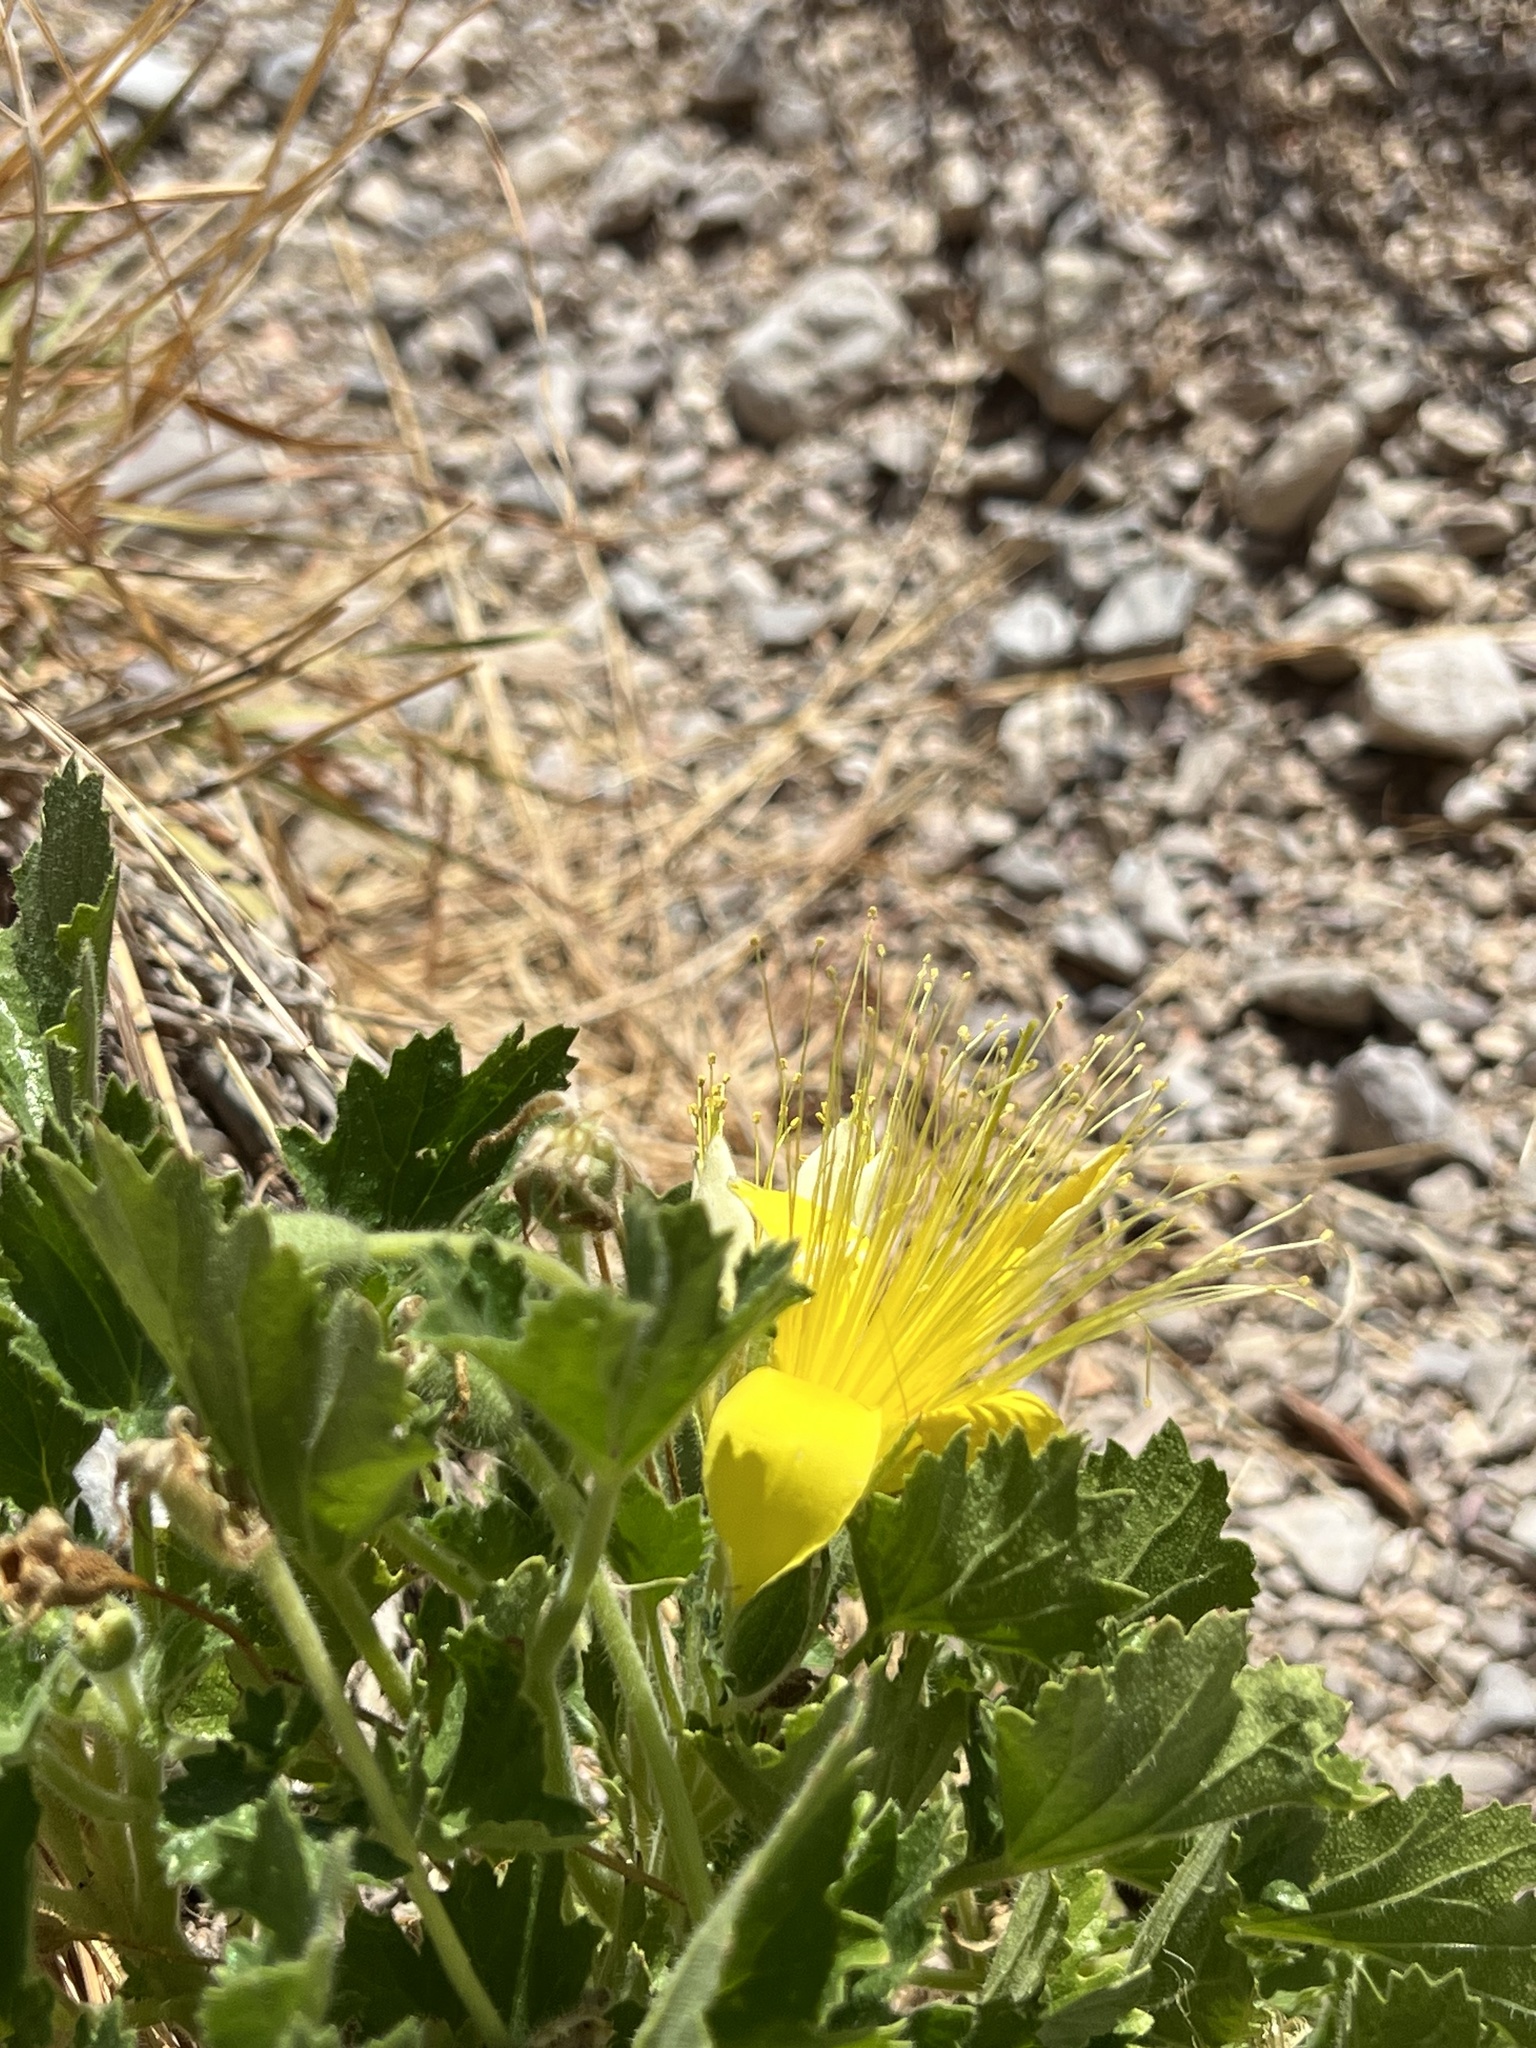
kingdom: Plantae
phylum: Tracheophyta
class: Magnoliopsida
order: Cornales
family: Loasaceae
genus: Eucnide
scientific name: Eucnide bartonioides
